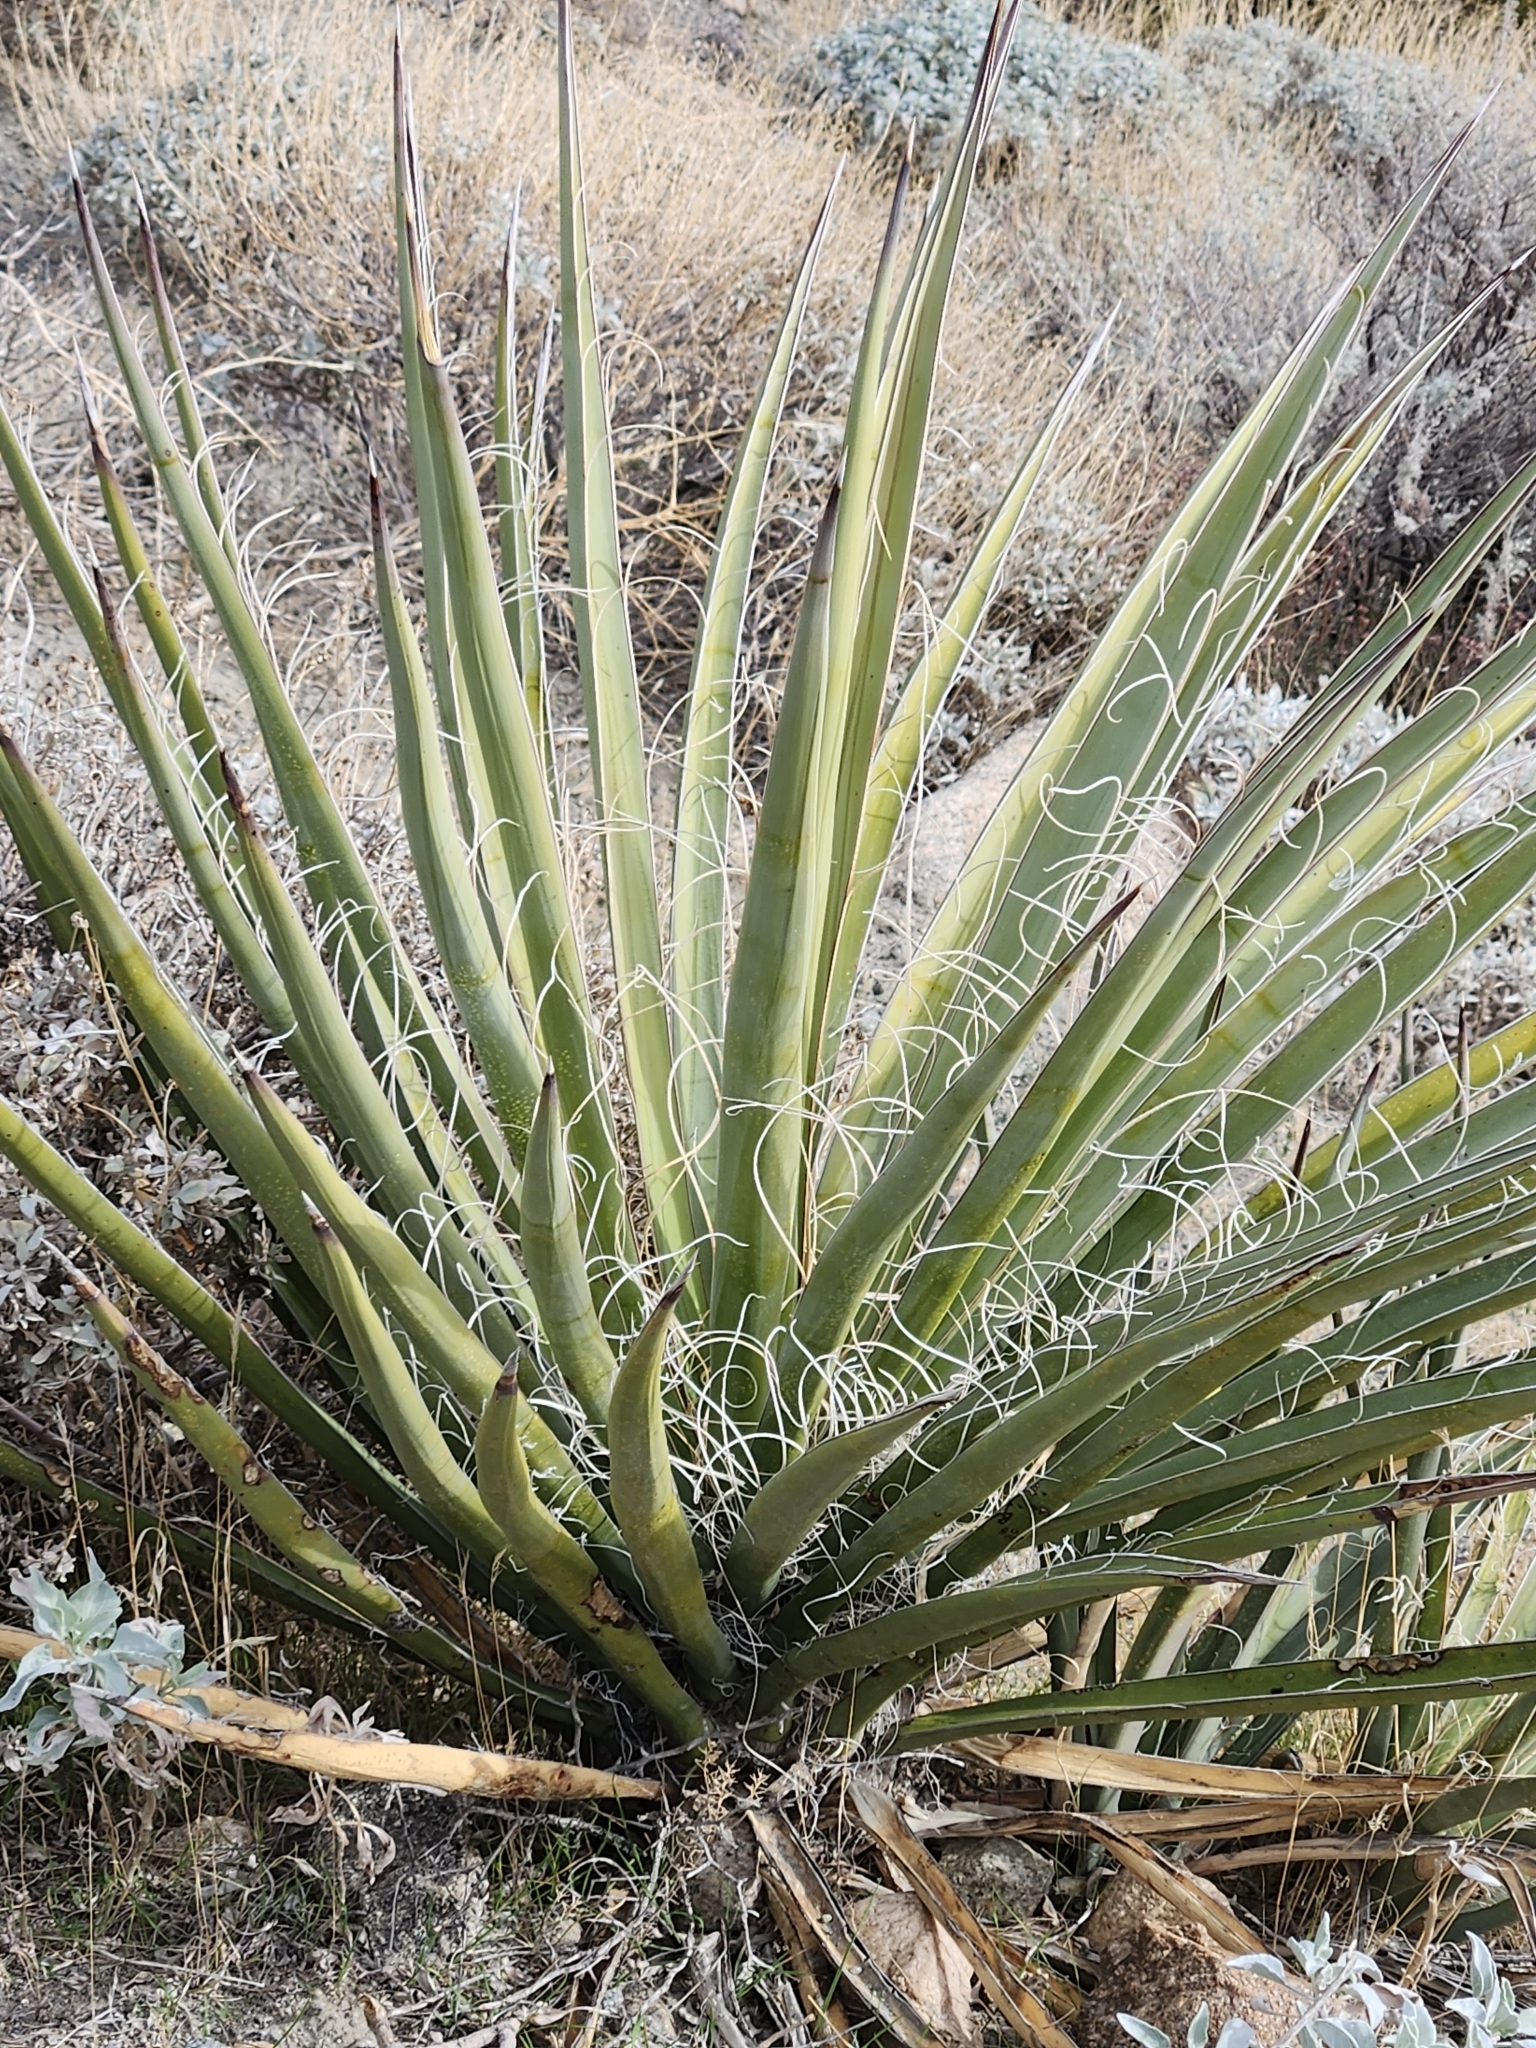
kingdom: Plantae
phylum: Tracheophyta
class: Liliopsida
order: Asparagales
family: Asparagaceae
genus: Yucca
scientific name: Yucca schidigera
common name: Mojave yucca
